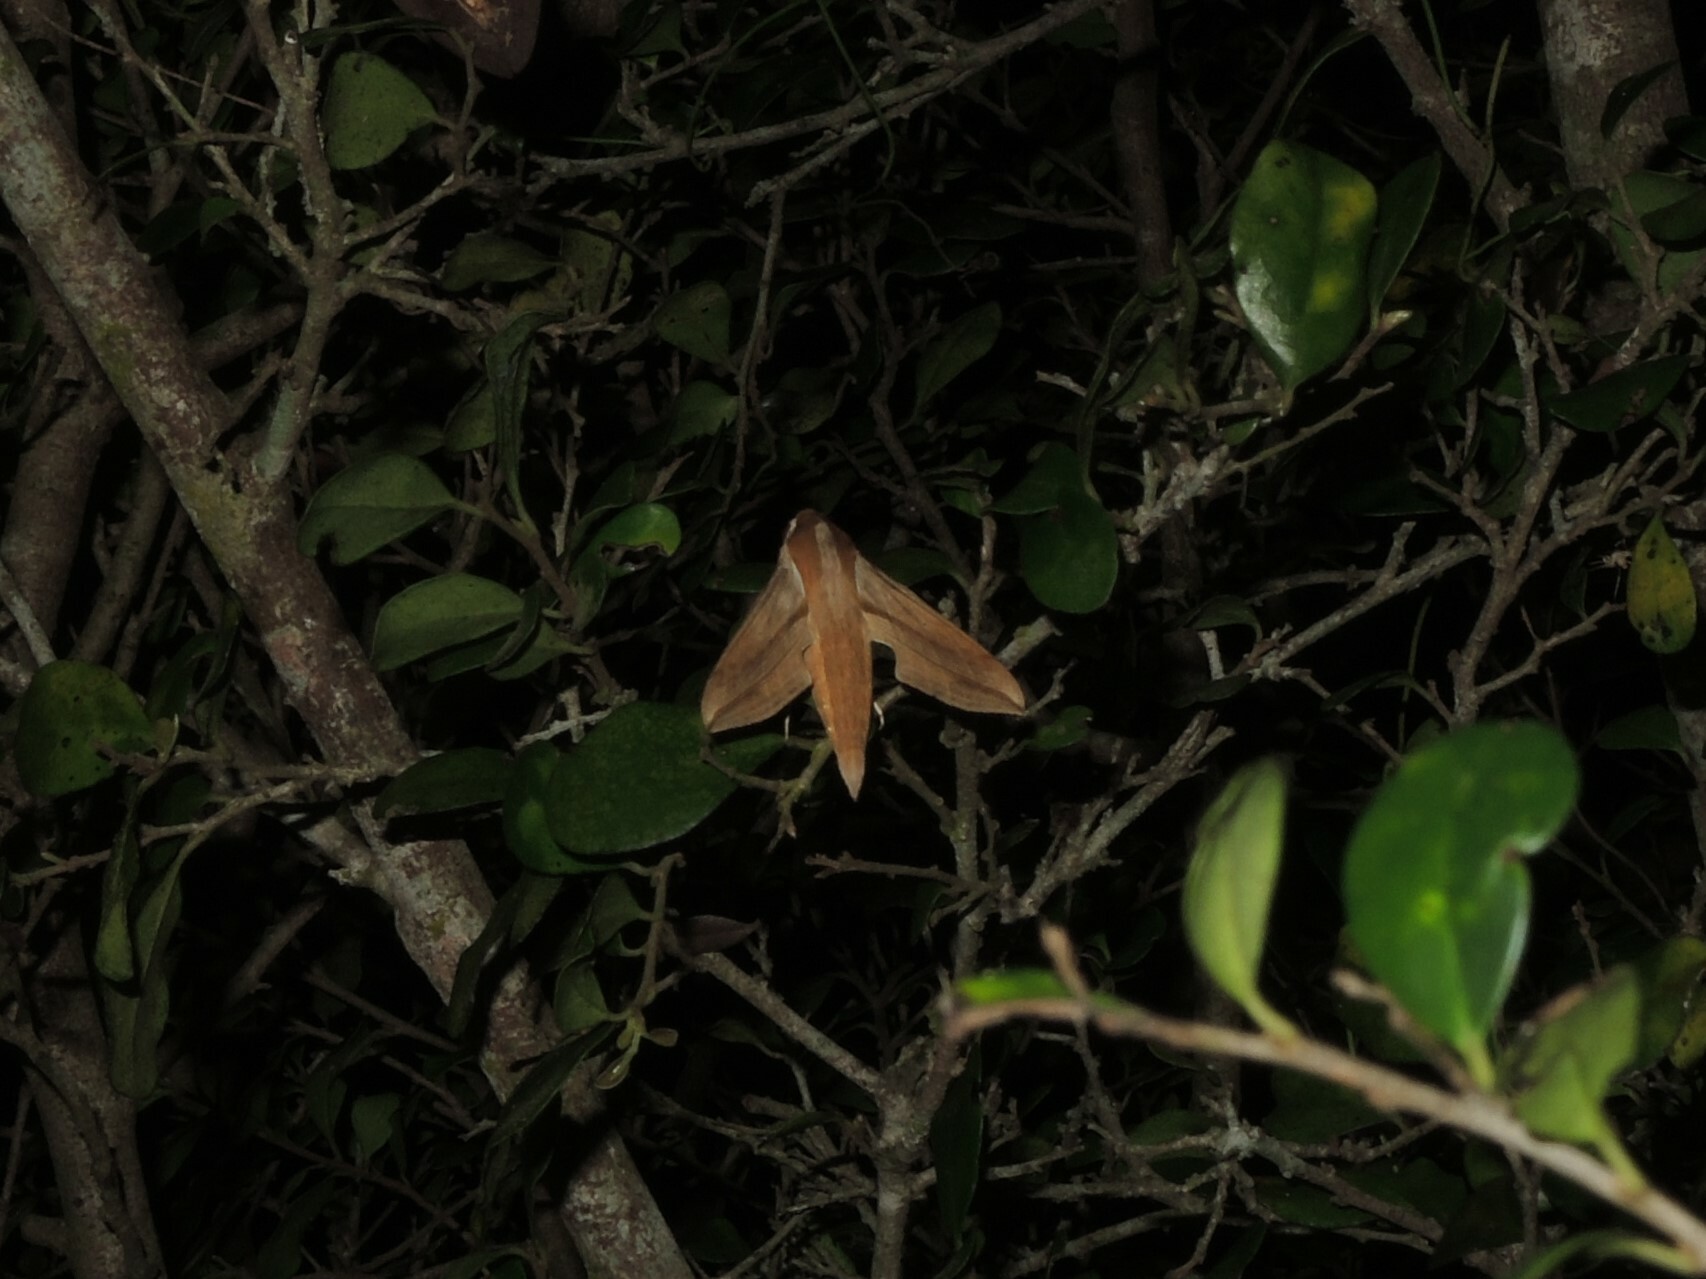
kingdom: Animalia
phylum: Arthropoda
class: Insecta
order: Lepidoptera
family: Sphingidae
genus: Hippotion
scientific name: Hippotion rosetta
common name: Vine hawk moth
